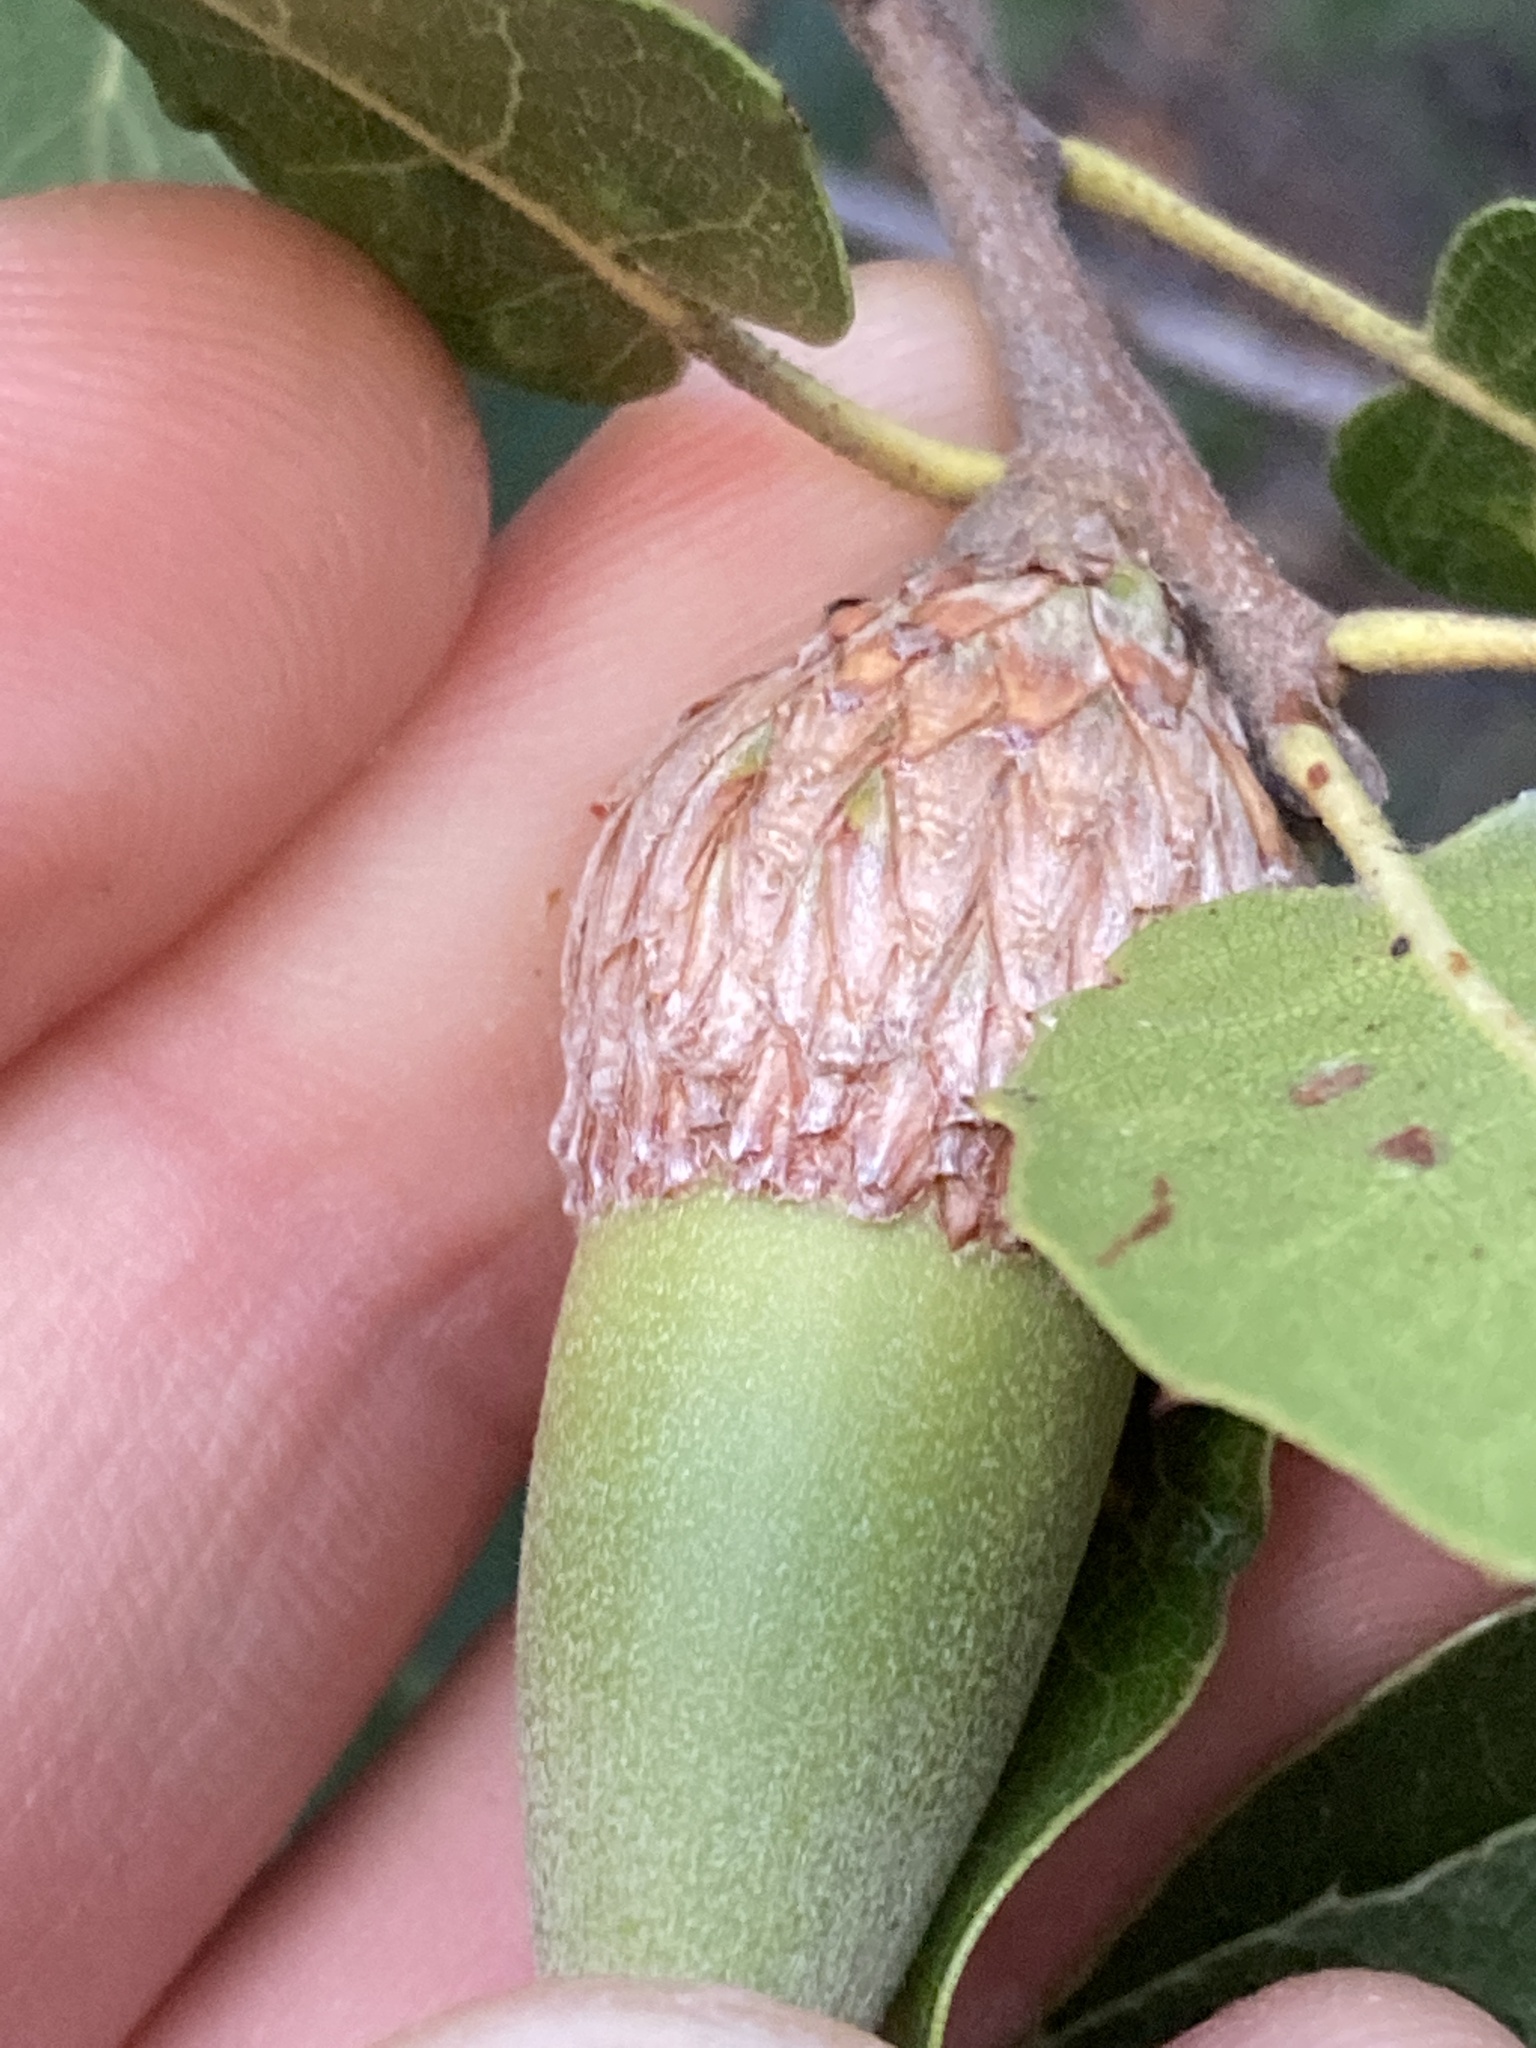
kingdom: Plantae
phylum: Tracheophyta
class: Magnoliopsida
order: Fagales
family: Fagaceae
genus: Quercus
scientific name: Quercus wislizeni
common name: Interior live oak
